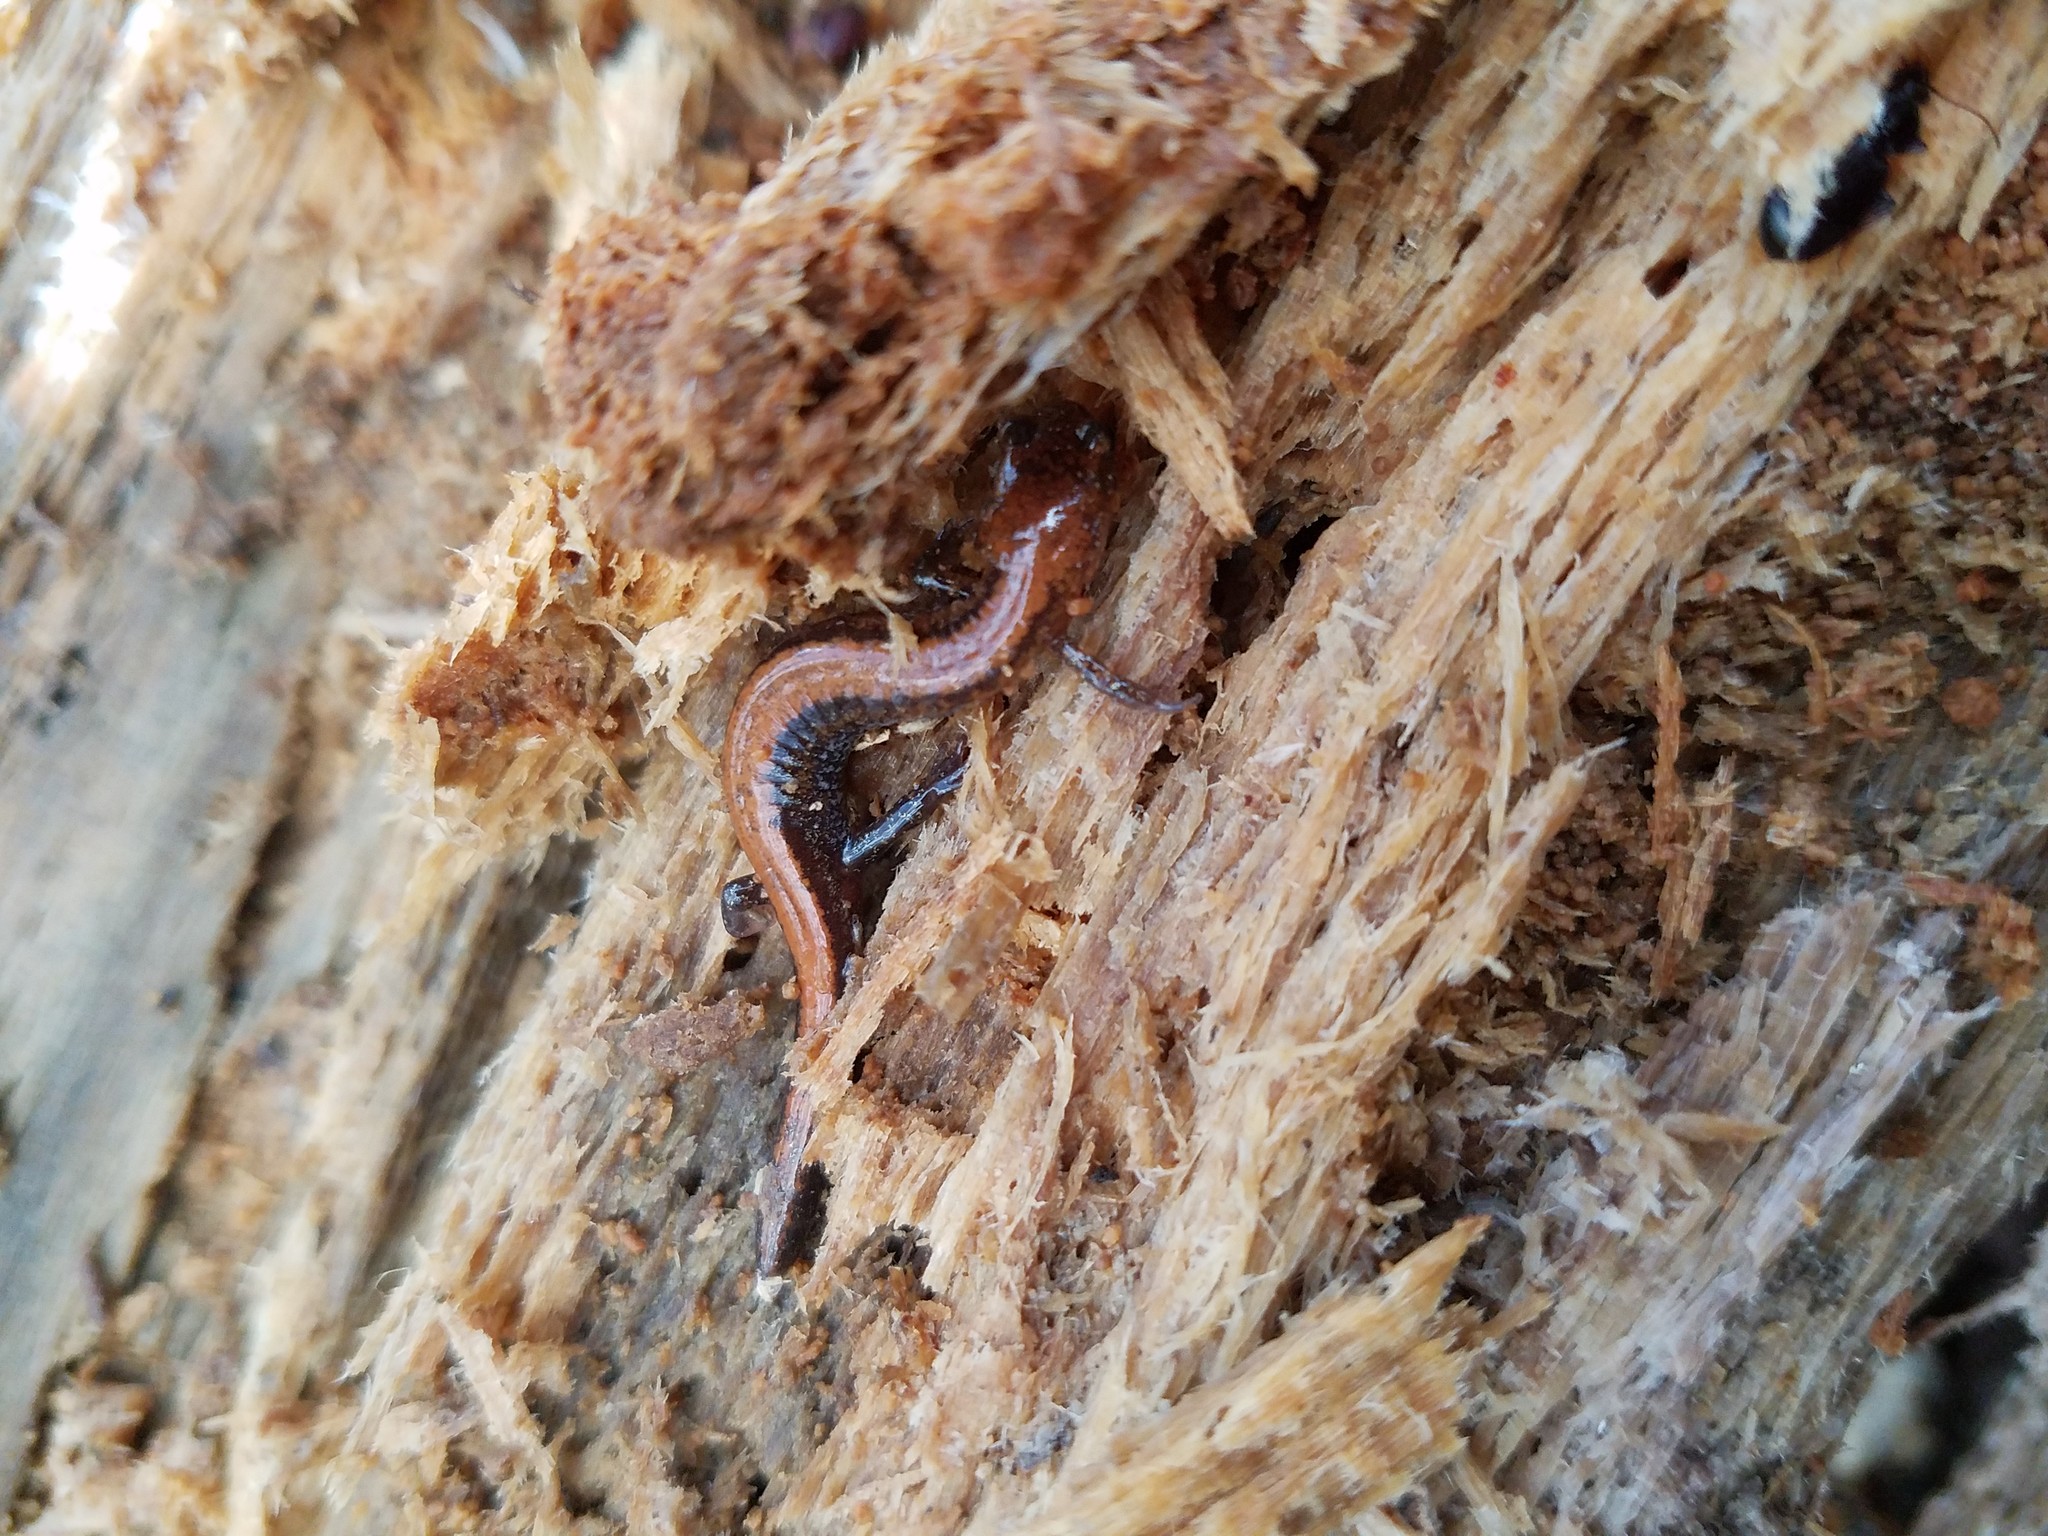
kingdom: Animalia
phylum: Chordata
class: Amphibia
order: Caudata
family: Plethodontidae
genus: Plethodon
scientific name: Plethodon cinereus
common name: Redback salamander
